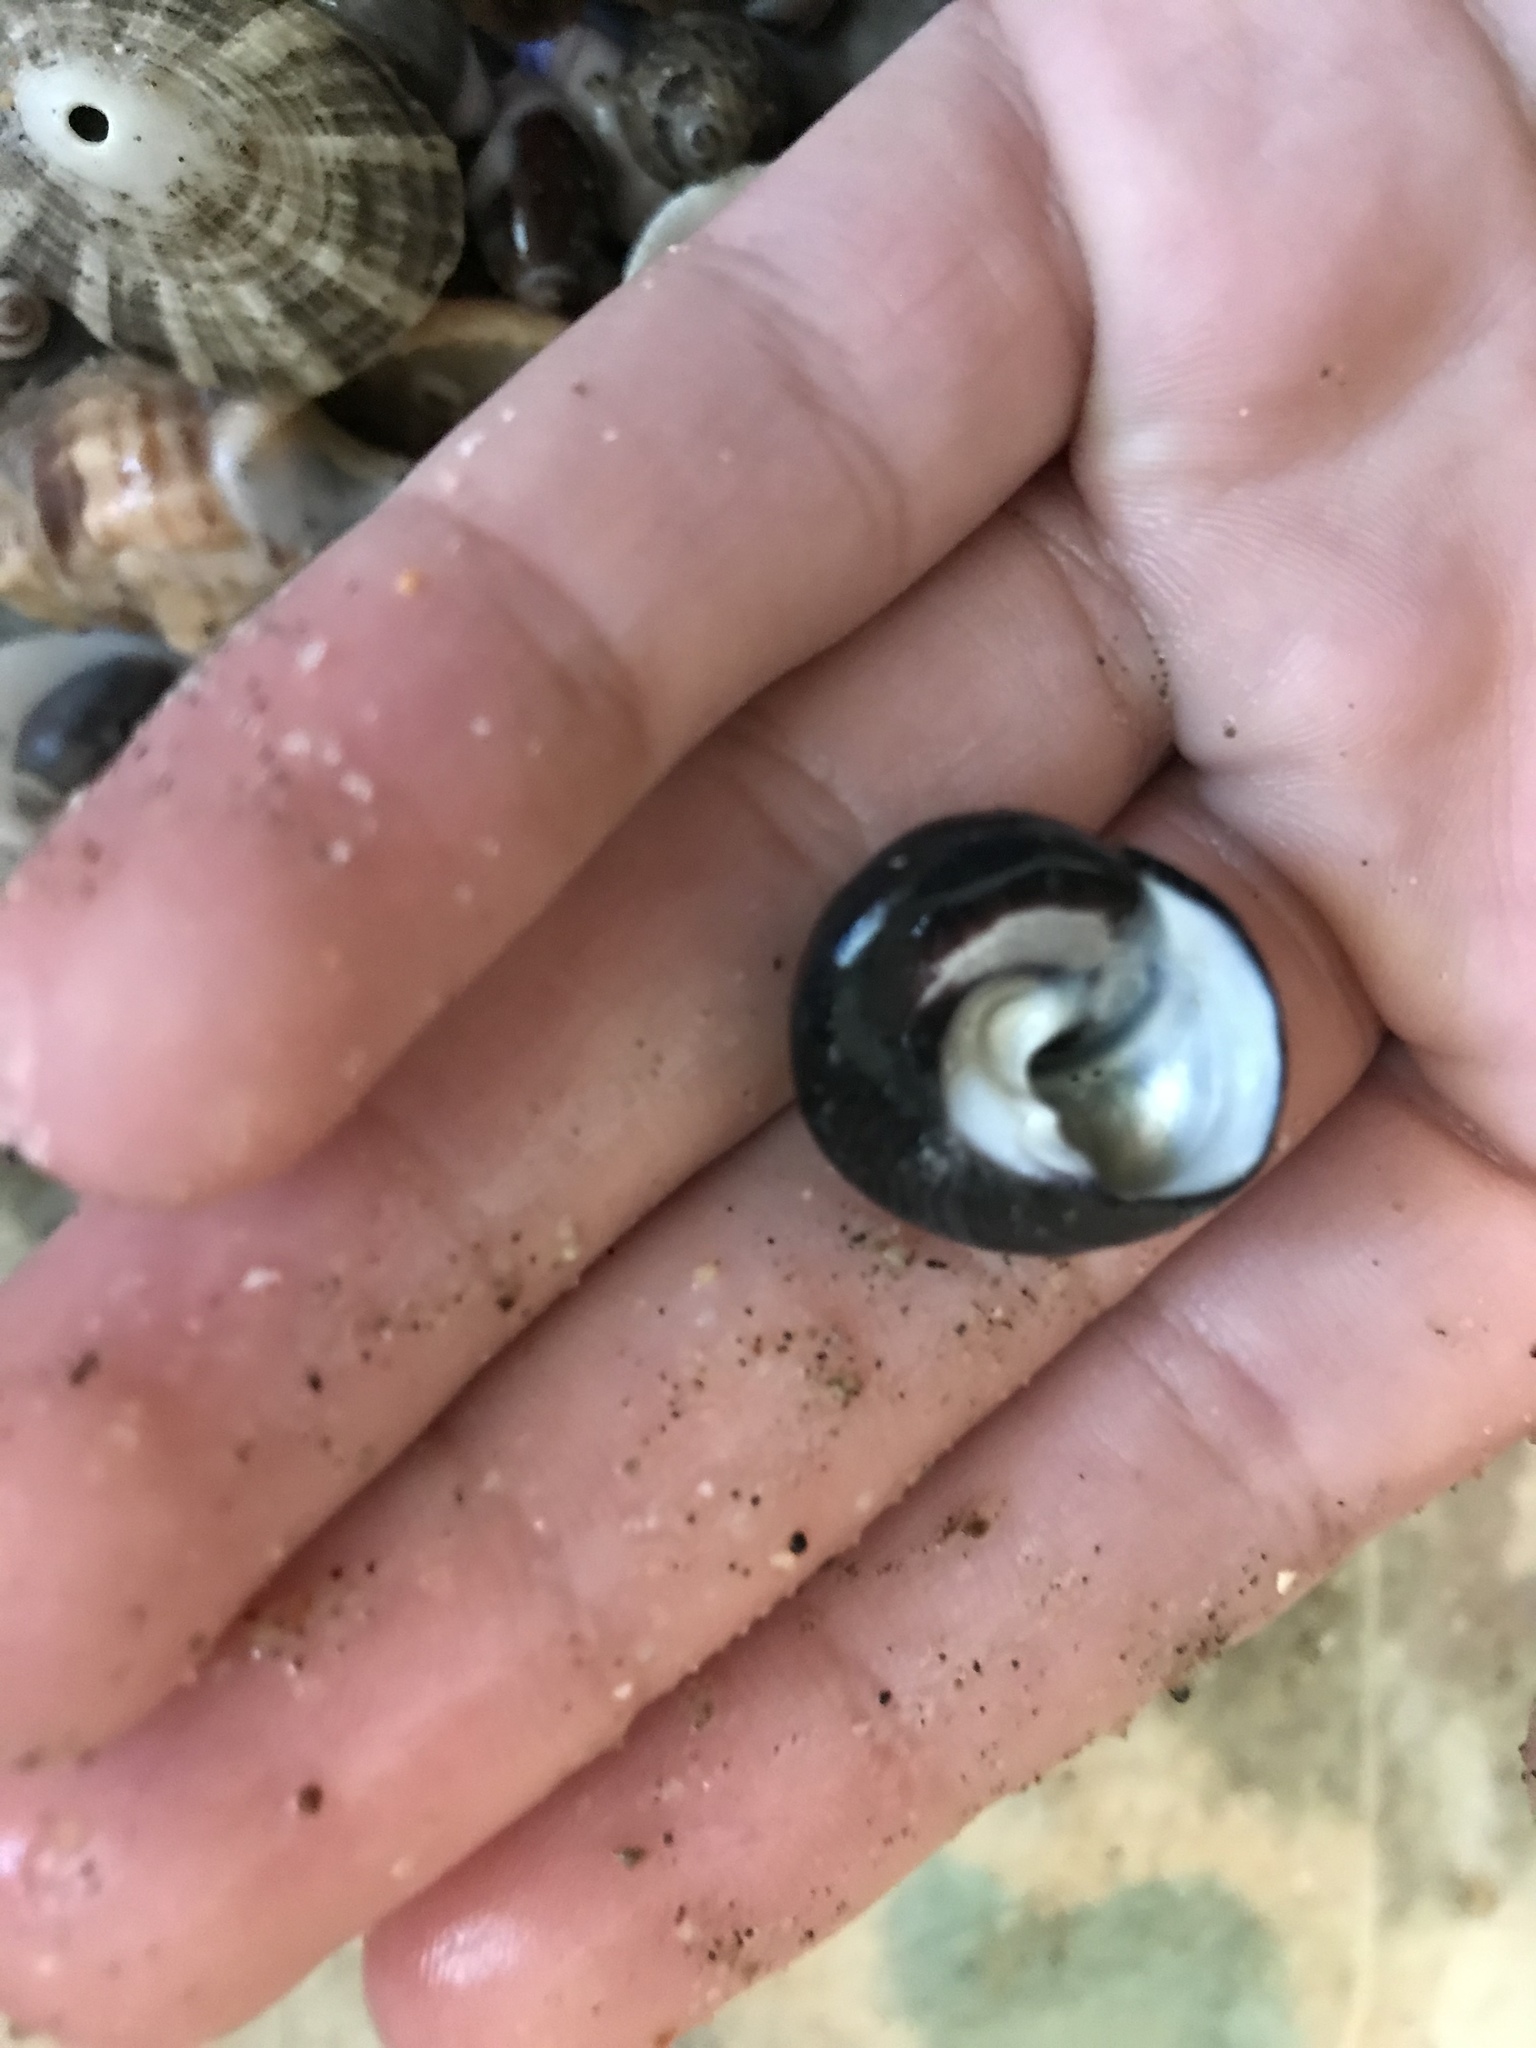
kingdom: Animalia
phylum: Mollusca
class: Gastropoda
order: Trochida
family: Tegulidae
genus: Tegula
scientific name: Tegula funebralis
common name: Black tegula
